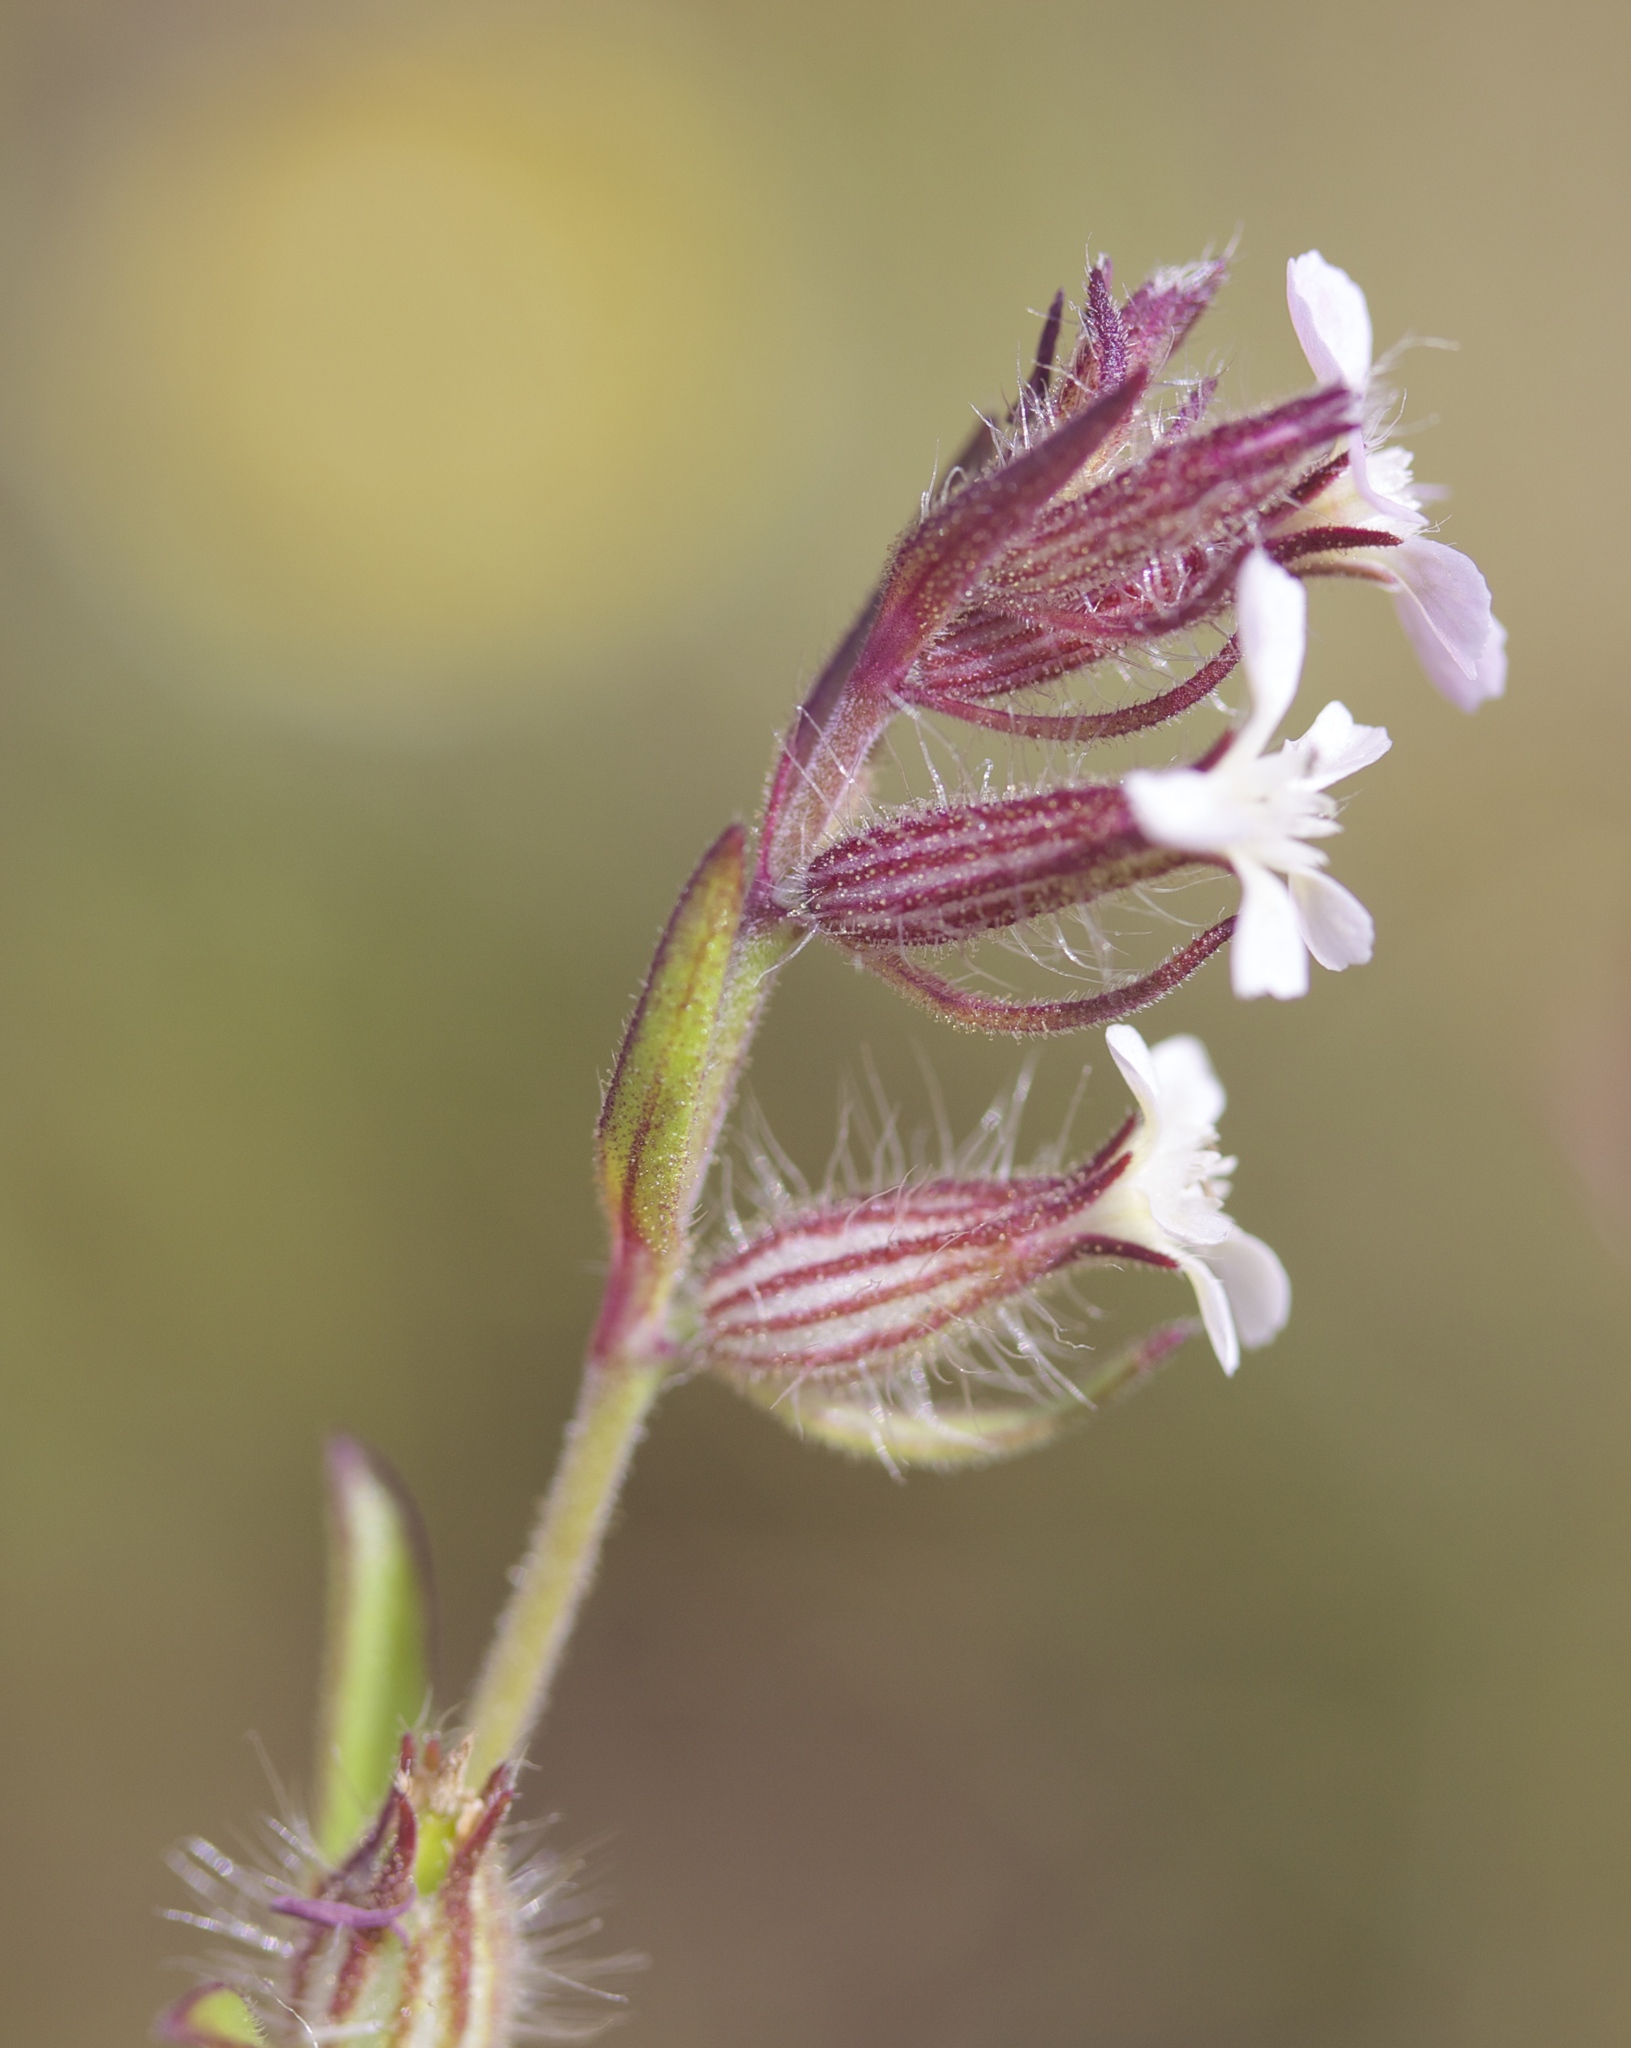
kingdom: Plantae
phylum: Tracheophyta
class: Magnoliopsida
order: Caryophyllales
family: Caryophyllaceae
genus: Silene
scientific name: Silene gallica
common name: Small-flowered catchfly
